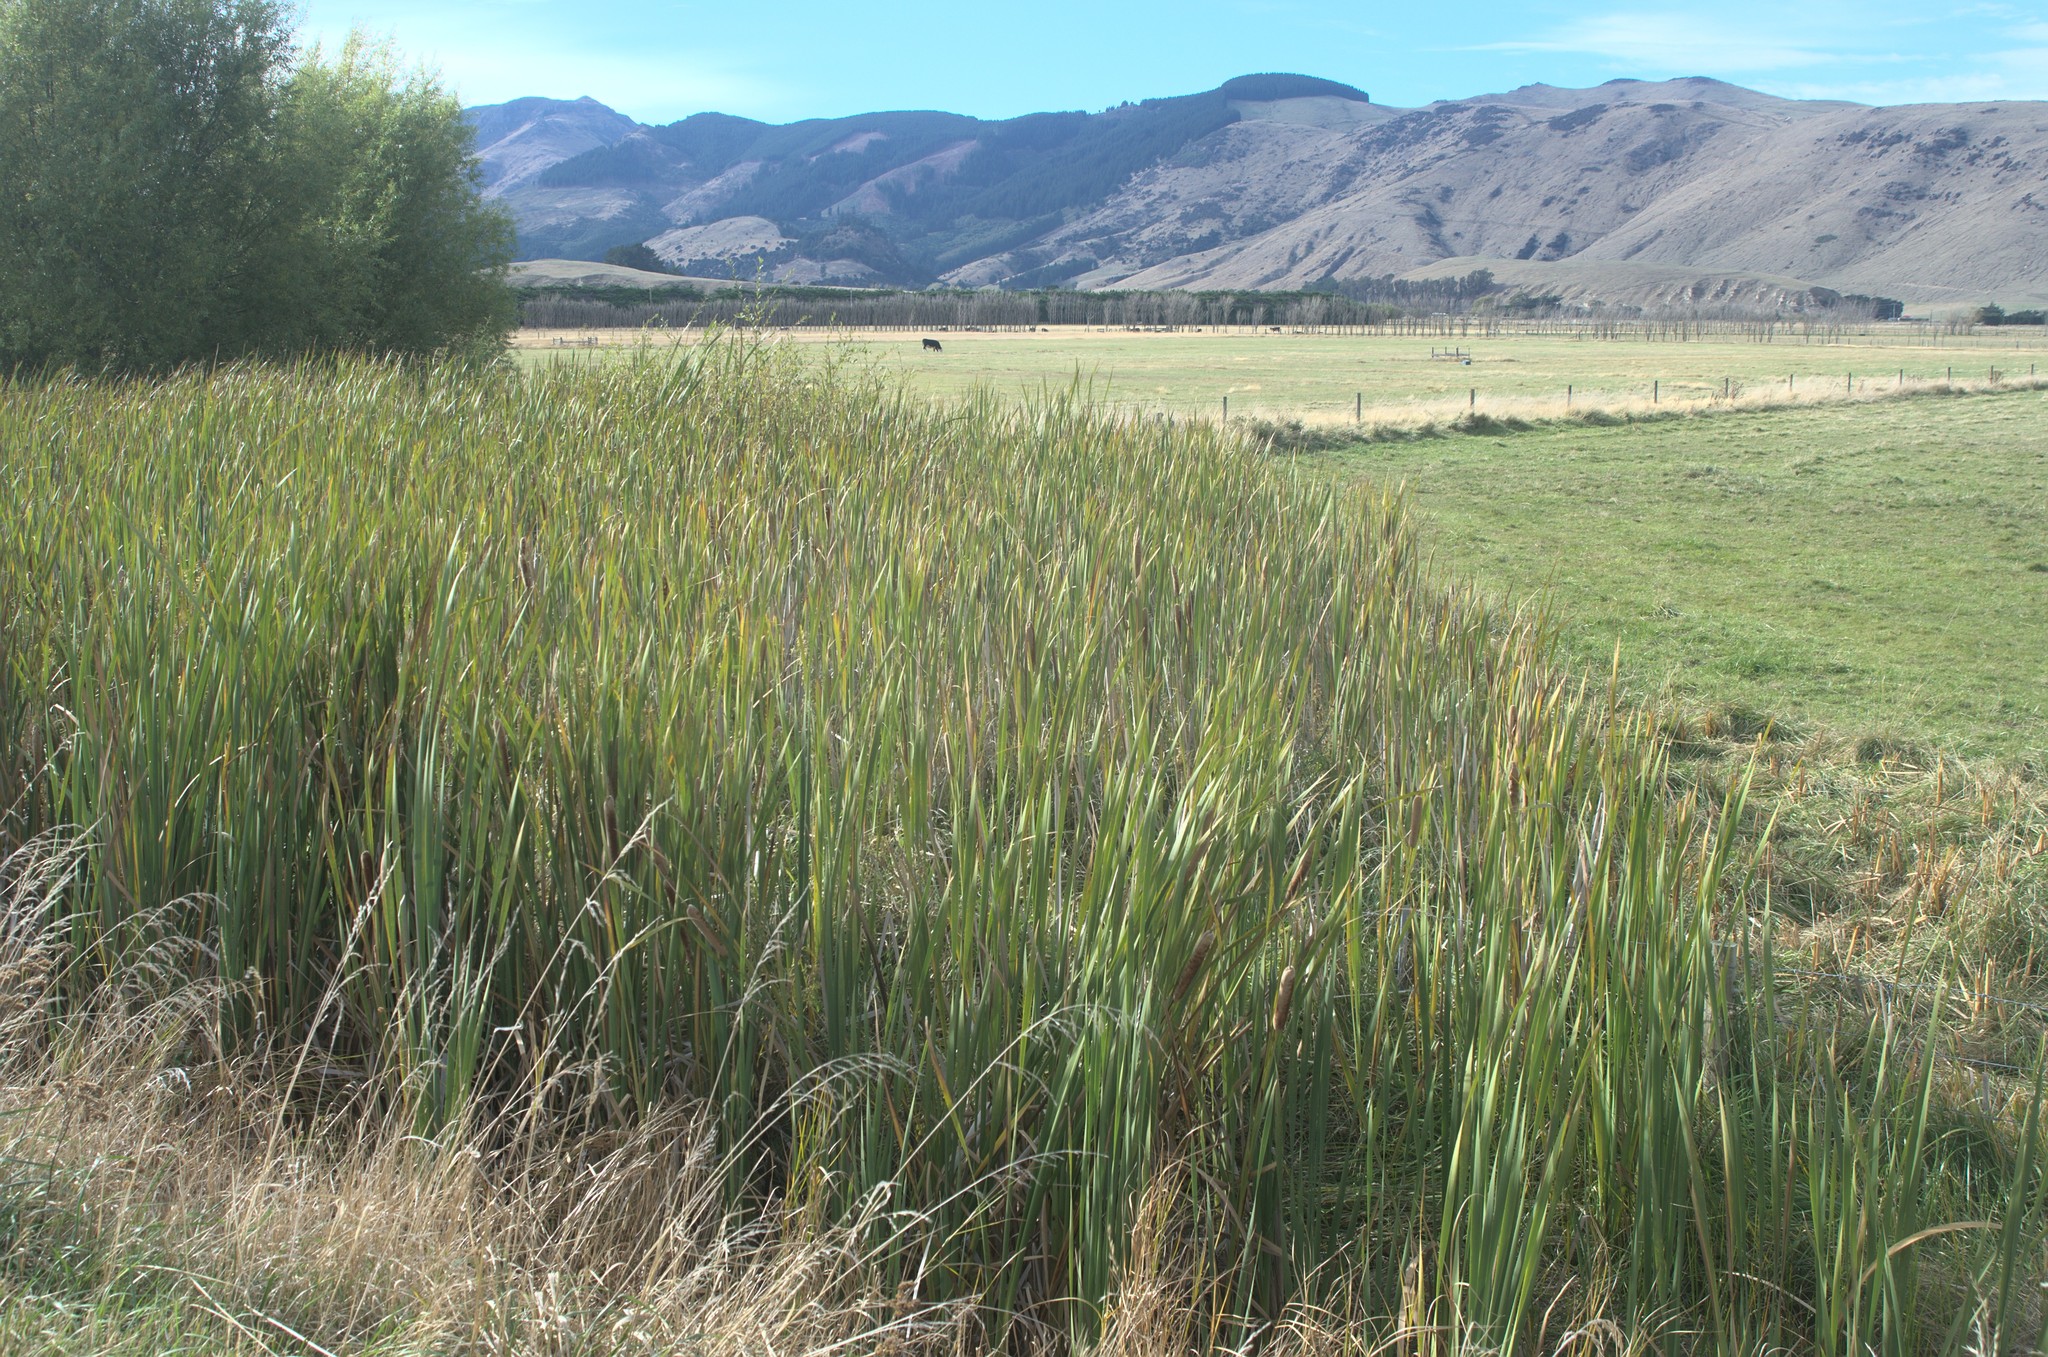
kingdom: Plantae
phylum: Tracheophyta
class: Liliopsida
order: Poales
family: Typhaceae
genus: Typha
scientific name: Typha orientalis
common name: Bullrush
